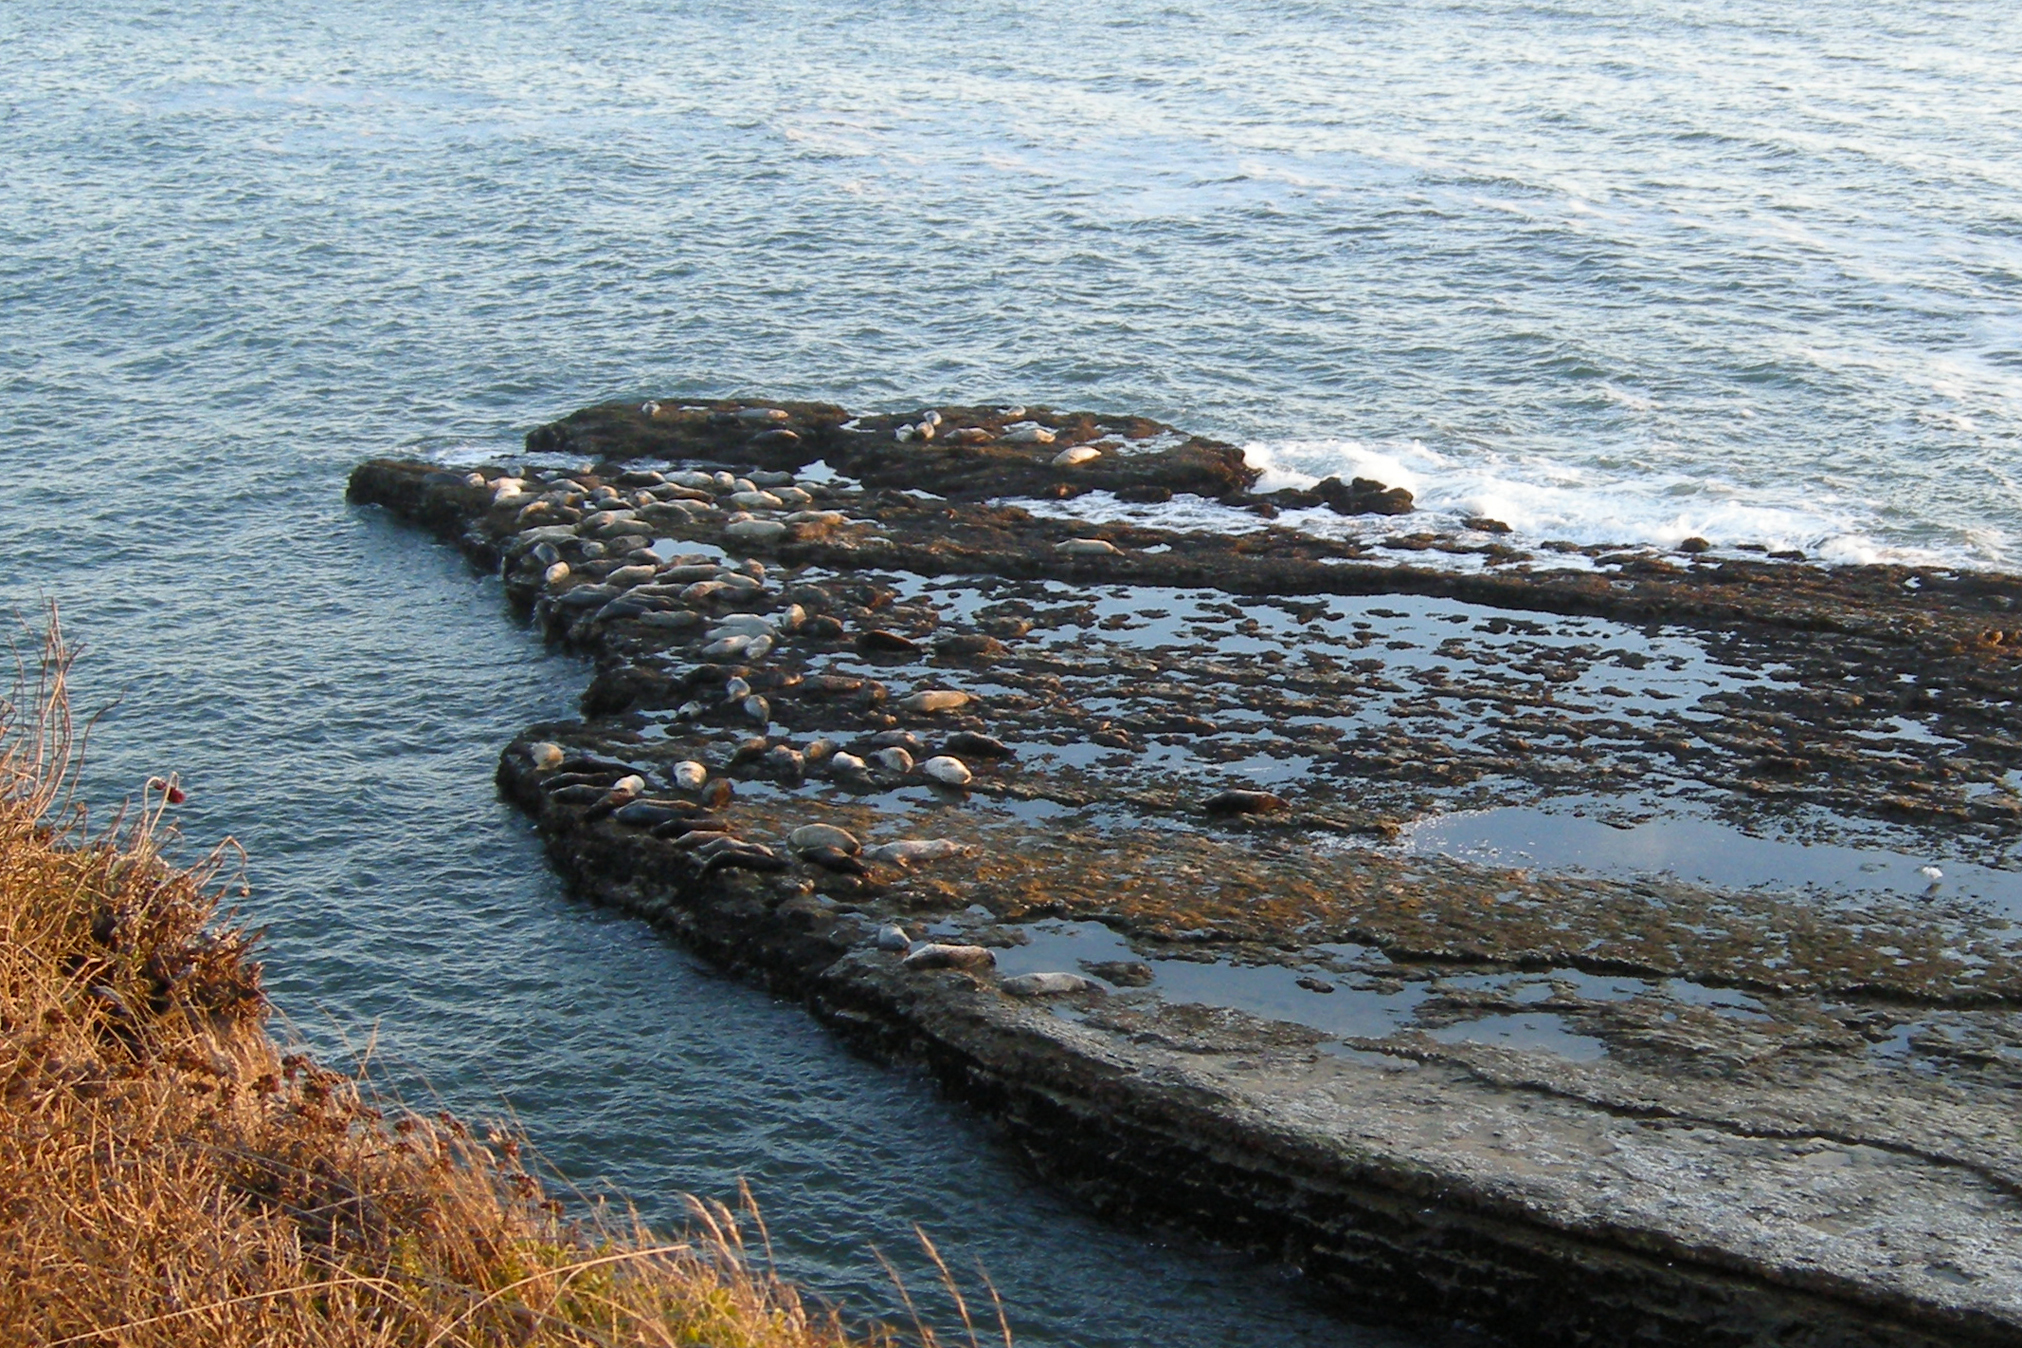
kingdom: Animalia
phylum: Chordata
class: Mammalia
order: Carnivora
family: Phocidae
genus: Phoca
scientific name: Phoca vitulina
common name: Harbor seal
